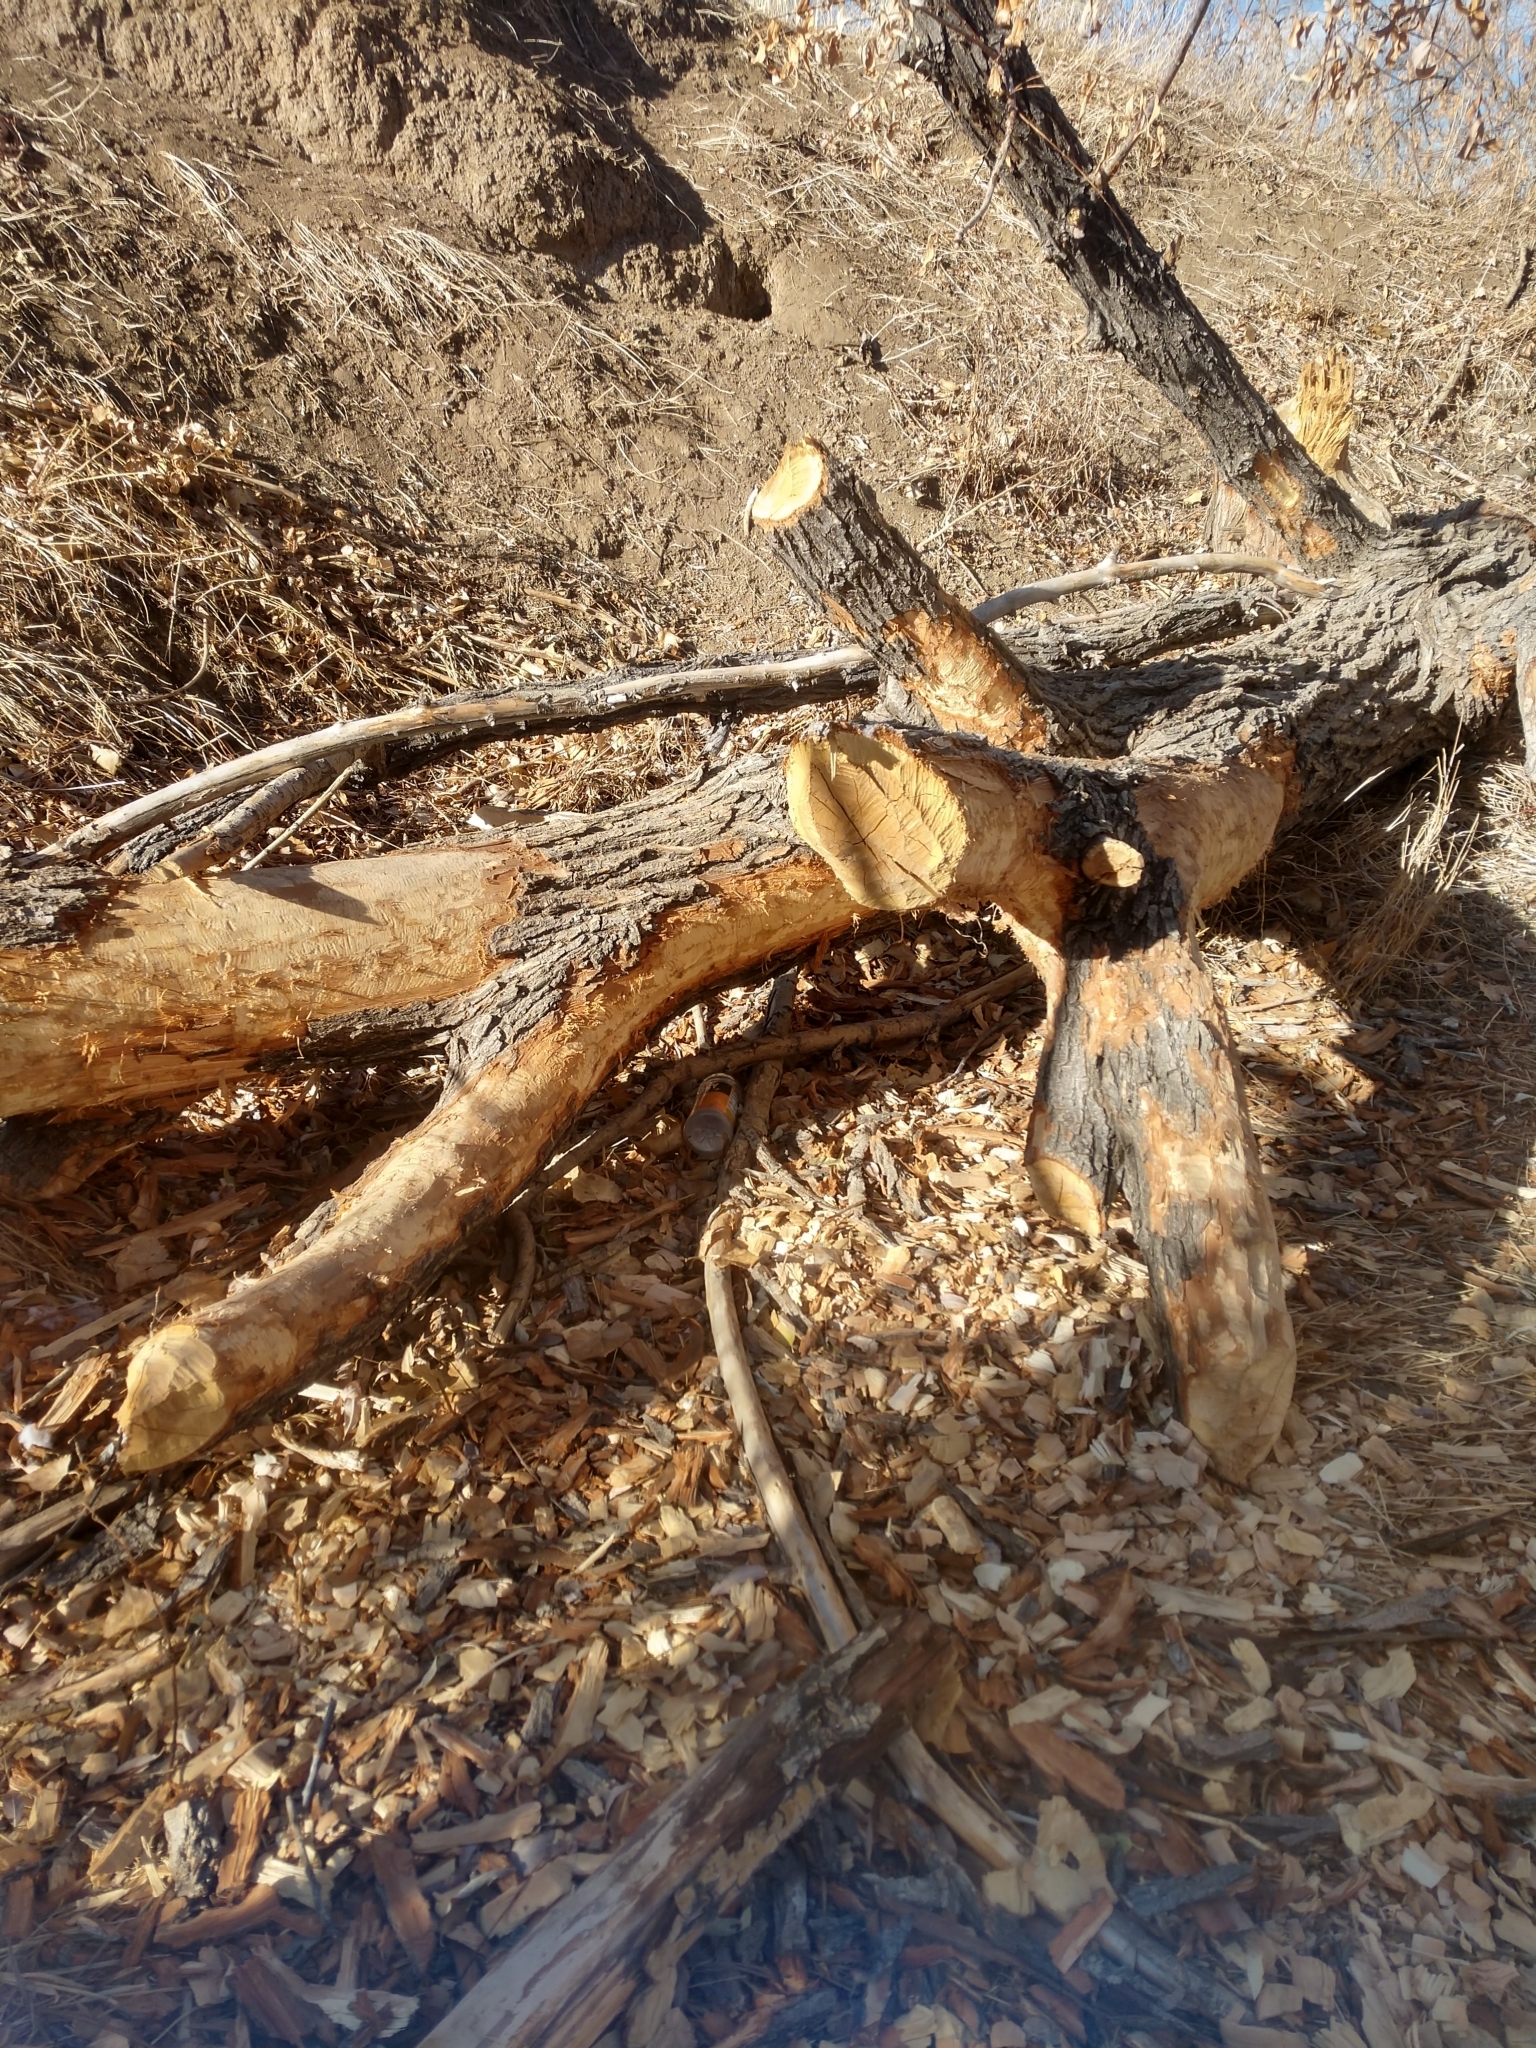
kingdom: Animalia
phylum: Chordata
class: Mammalia
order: Rodentia
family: Castoridae
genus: Castor
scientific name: Castor canadensis
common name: American beaver
